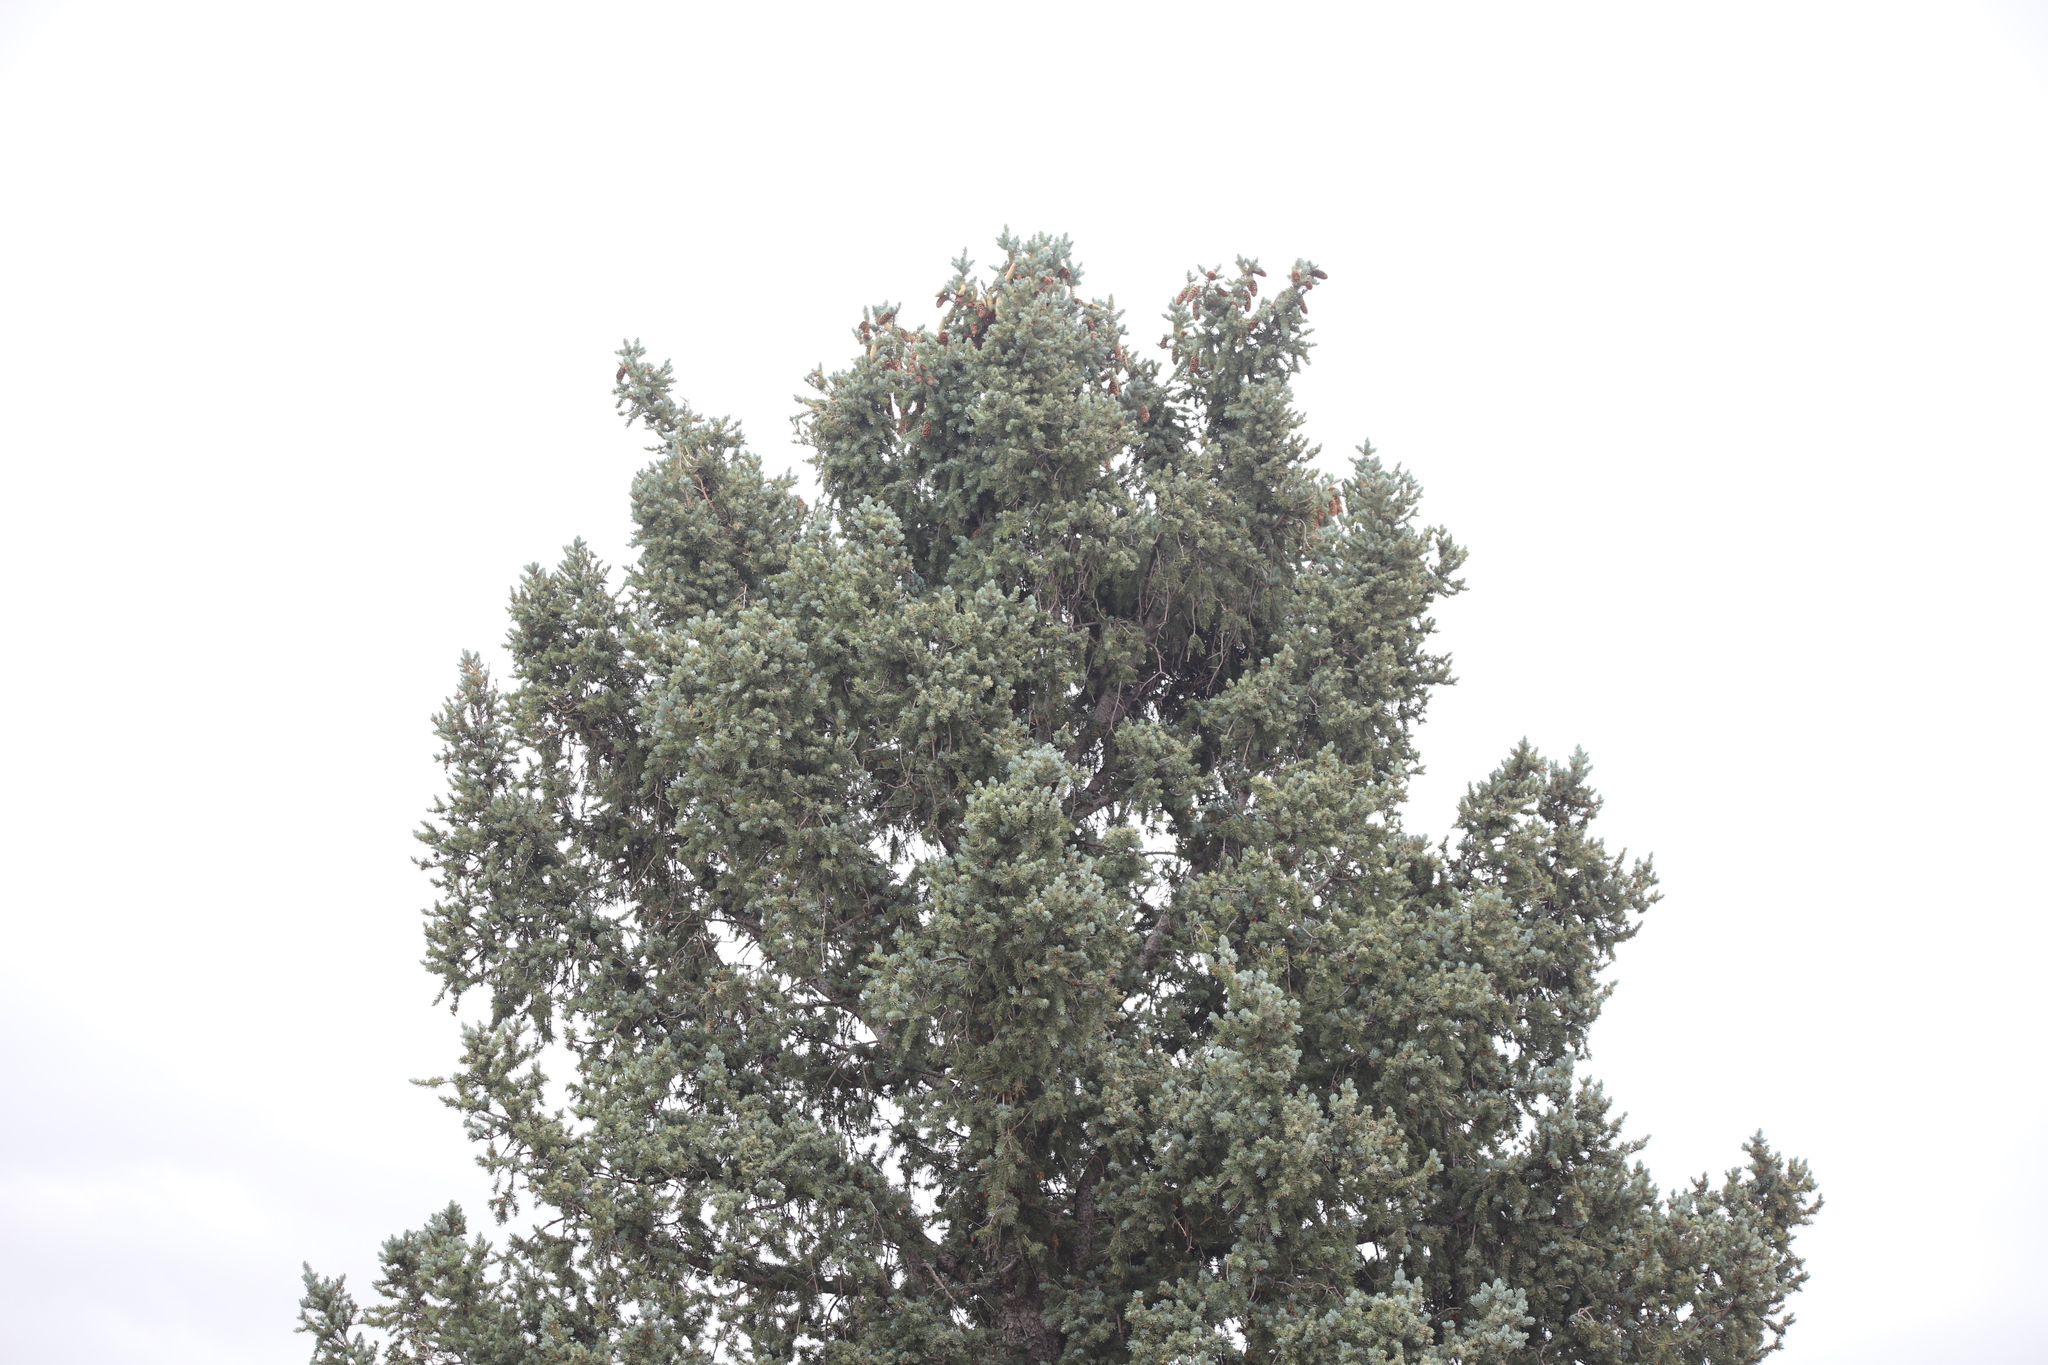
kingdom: Plantae
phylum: Tracheophyta
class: Pinopsida
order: Pinales
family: Cupressaceae
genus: Juniperus
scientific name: Juniperus scopulorum
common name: Rocky mountain juniper
